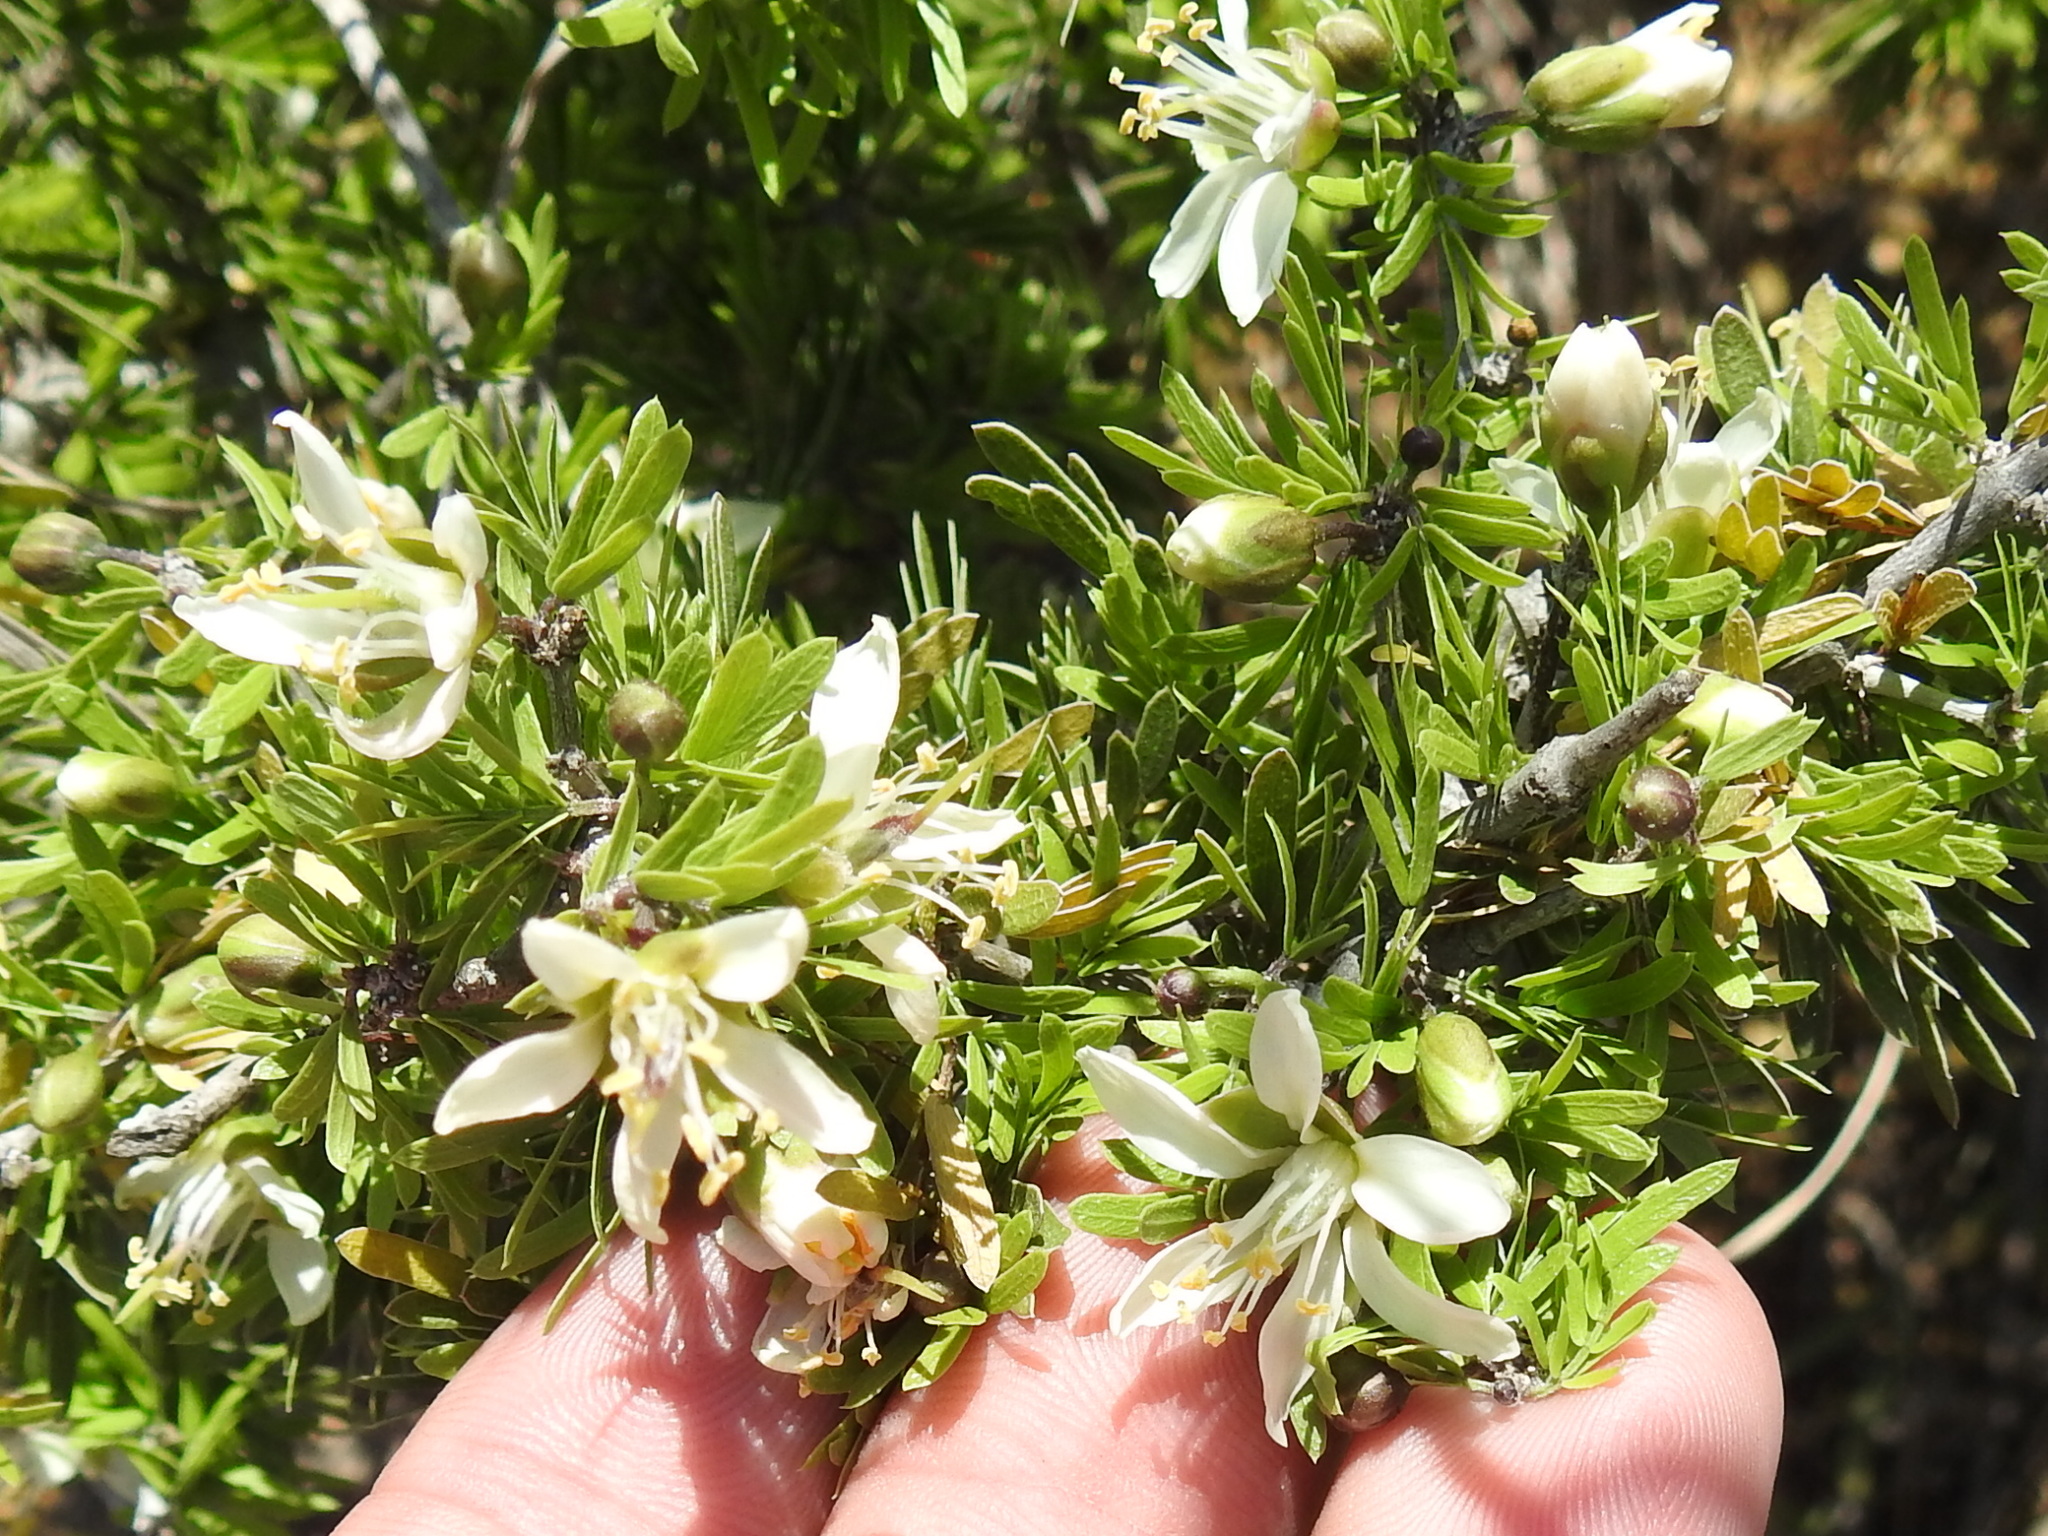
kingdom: Plantae
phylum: Tracheophyta
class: Magnoliopsida
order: Zygophyllales
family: Zygophyllaceae
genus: Porlieria
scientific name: Porlieria angustifolia
